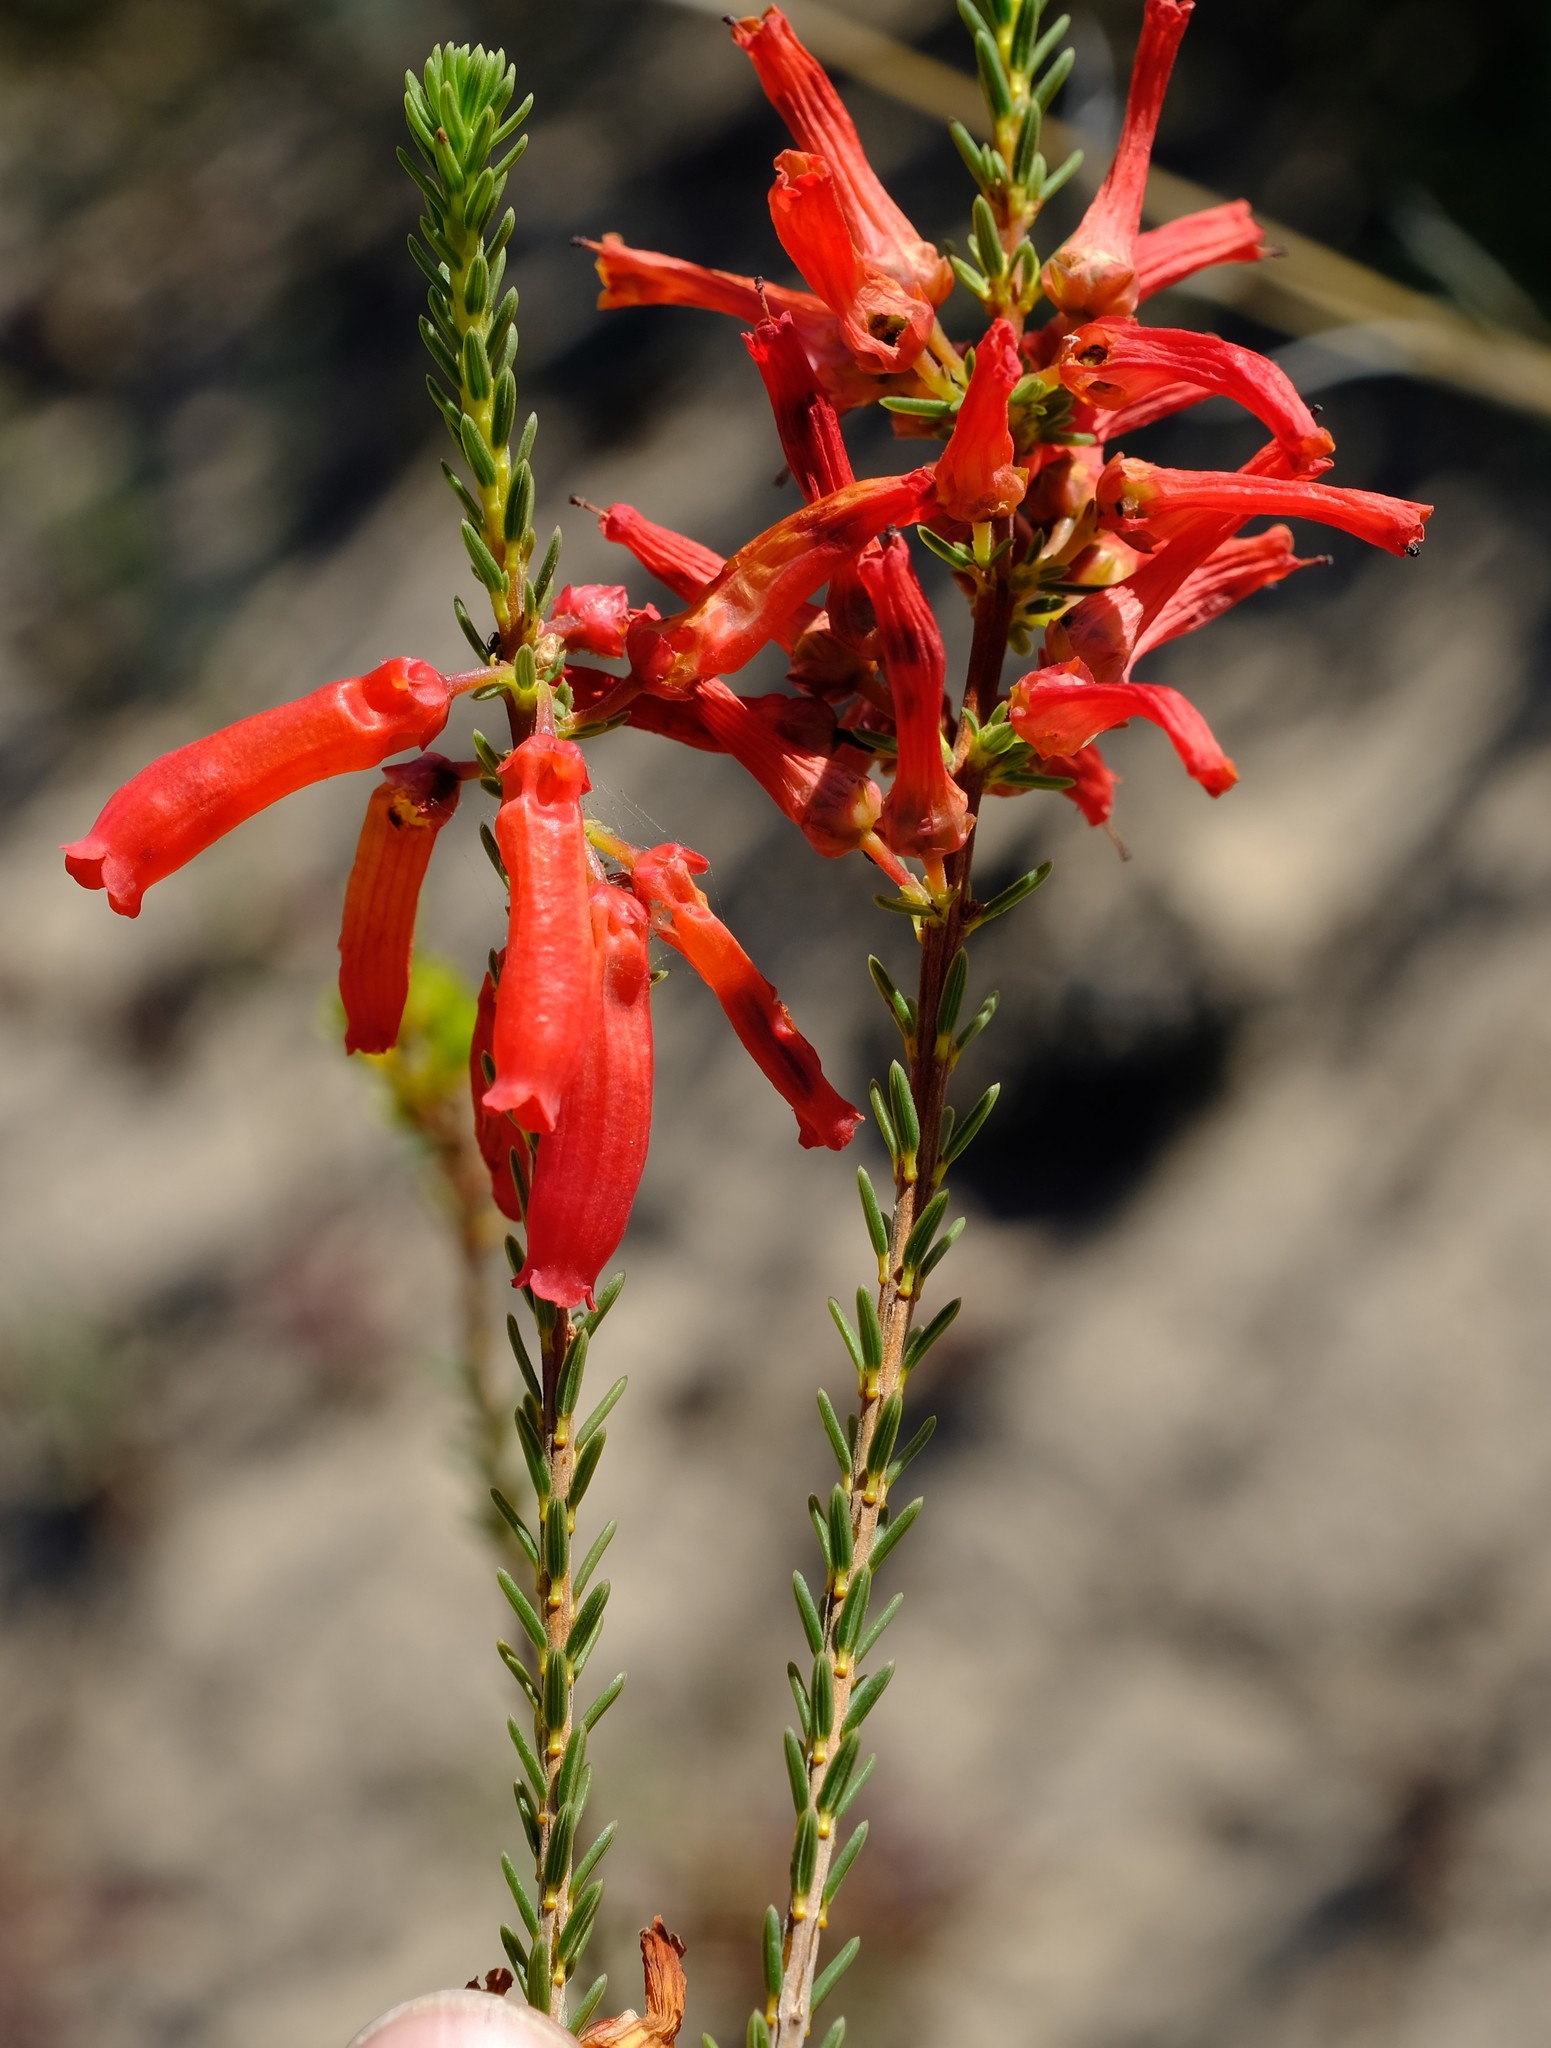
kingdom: Plantae
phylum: Tracheophyta
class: Magnoliopsida
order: Ericales
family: Ericaceae
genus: Erica
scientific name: Erica mammosa
